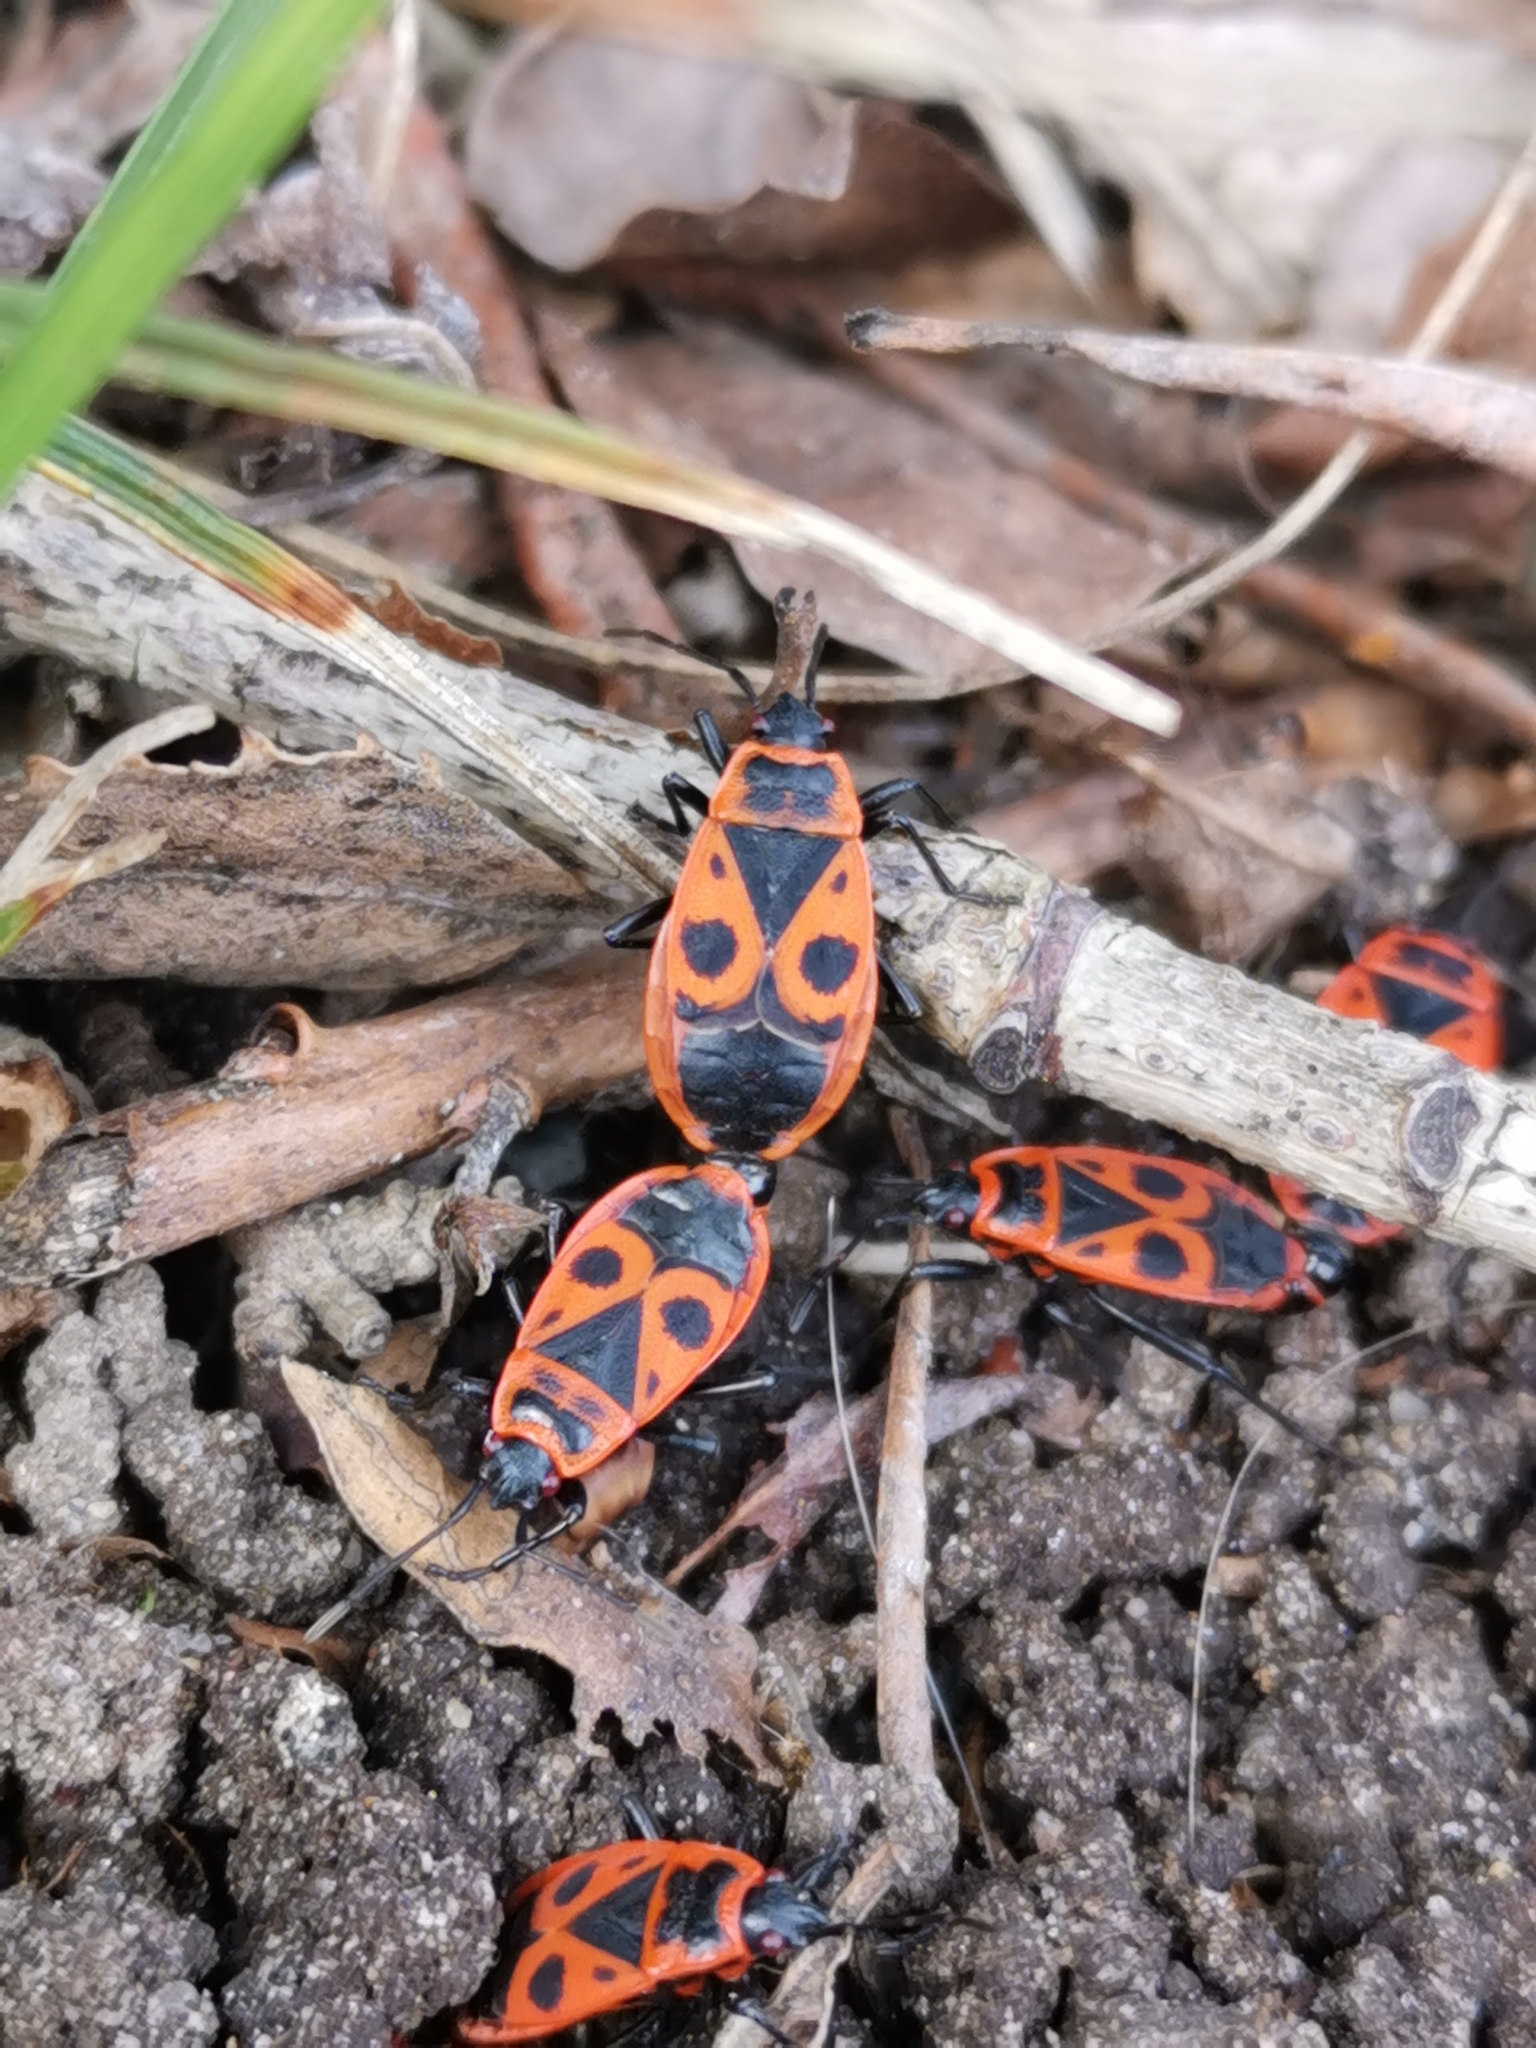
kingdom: Animalia
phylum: Arthropoda
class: Insecta
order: Hemiptera
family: Pyrrhocoridae
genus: Pyrrhocoris
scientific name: Pyrrhocoris apterus
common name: Firebug
